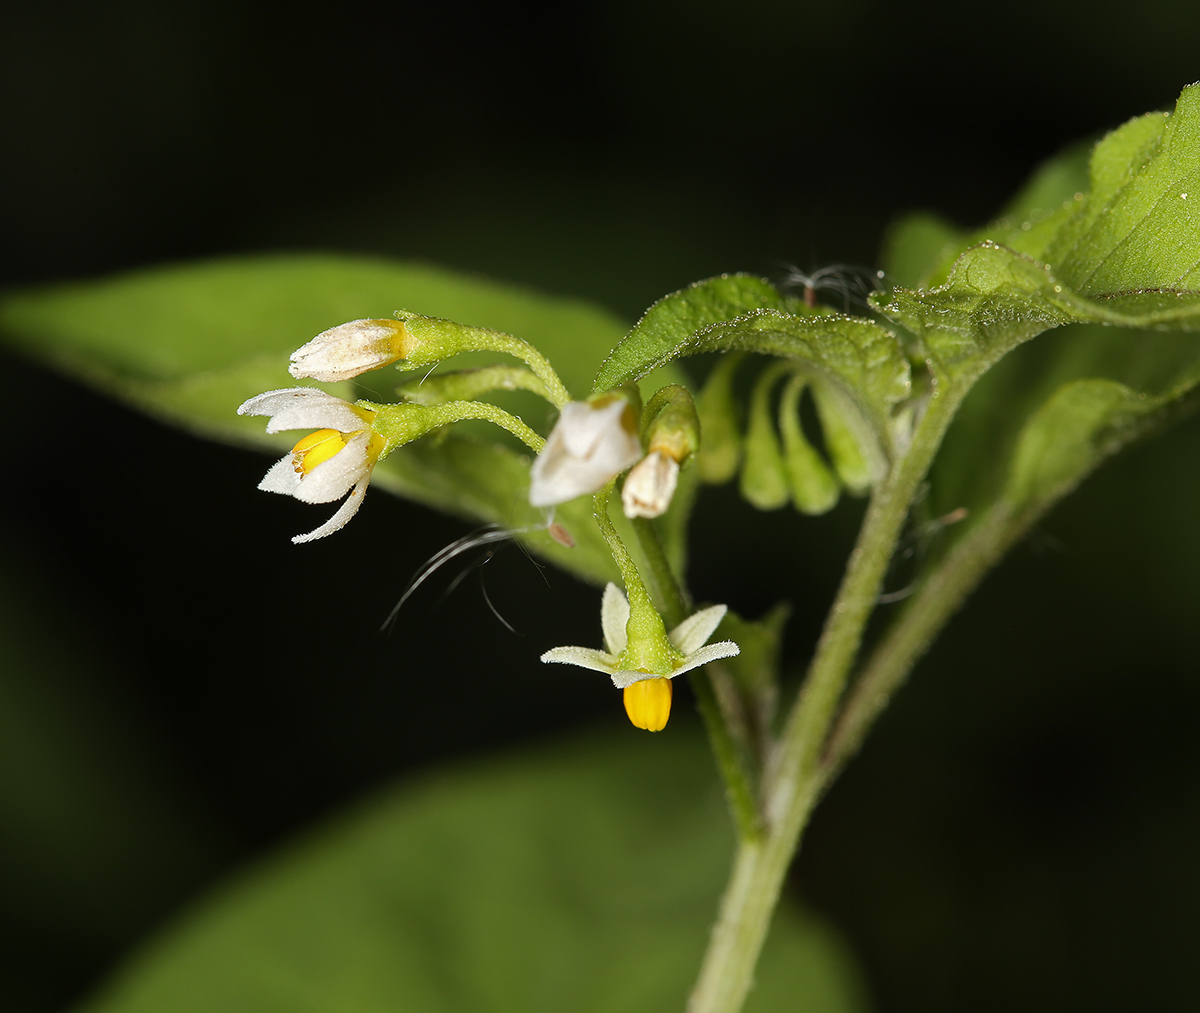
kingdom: Plantae
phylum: Tracheophyta
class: Magnoliopsida
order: Solanales
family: Solanaceae
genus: Solanum
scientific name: Solanum americanum
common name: American black nightshade
